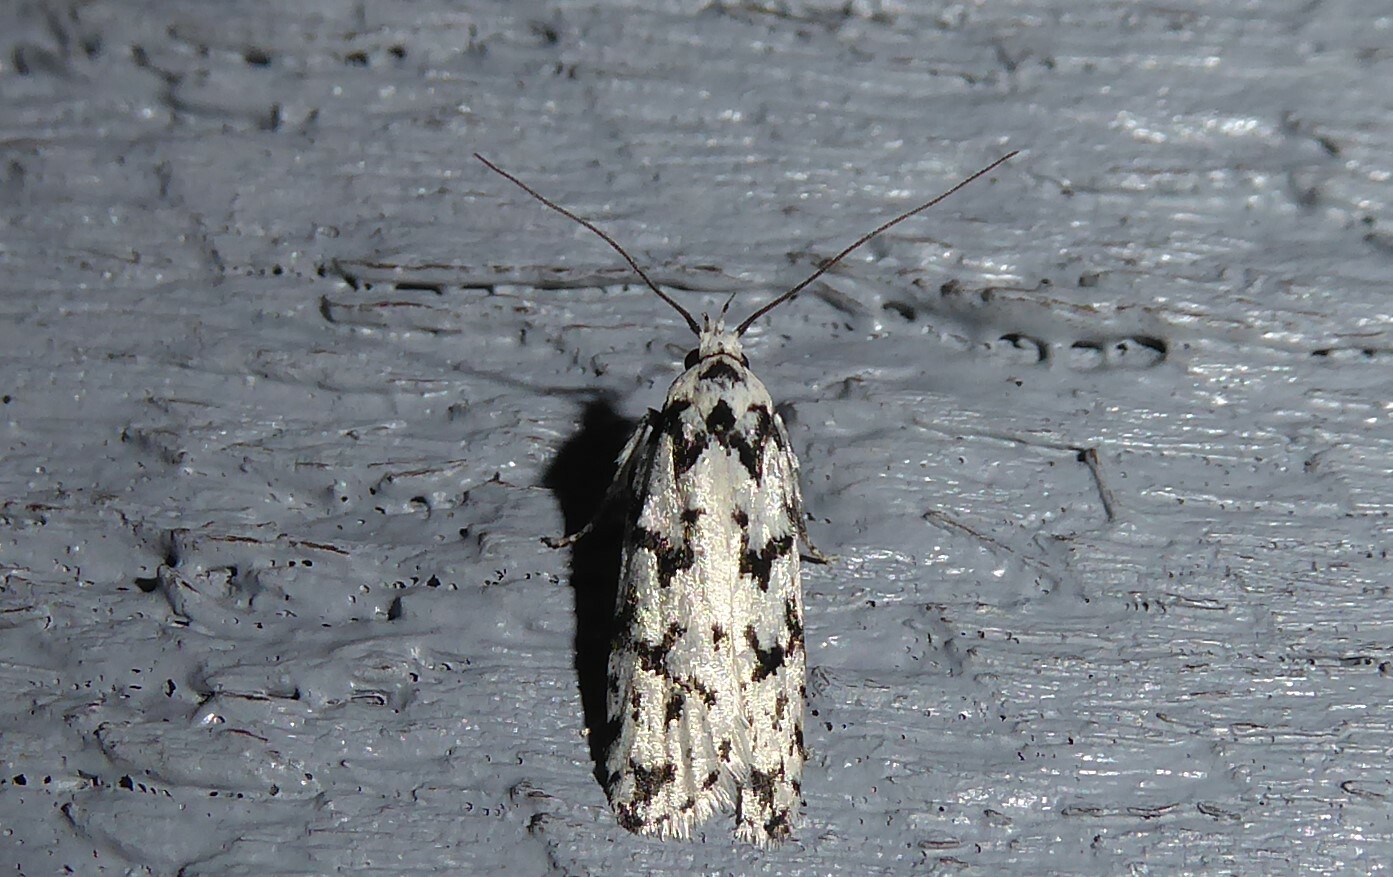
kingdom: Animalia
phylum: Arthropoda
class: Insecta
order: Lepidoptera
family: Oecophoridae
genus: Izatha
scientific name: Izatha katadiktya
